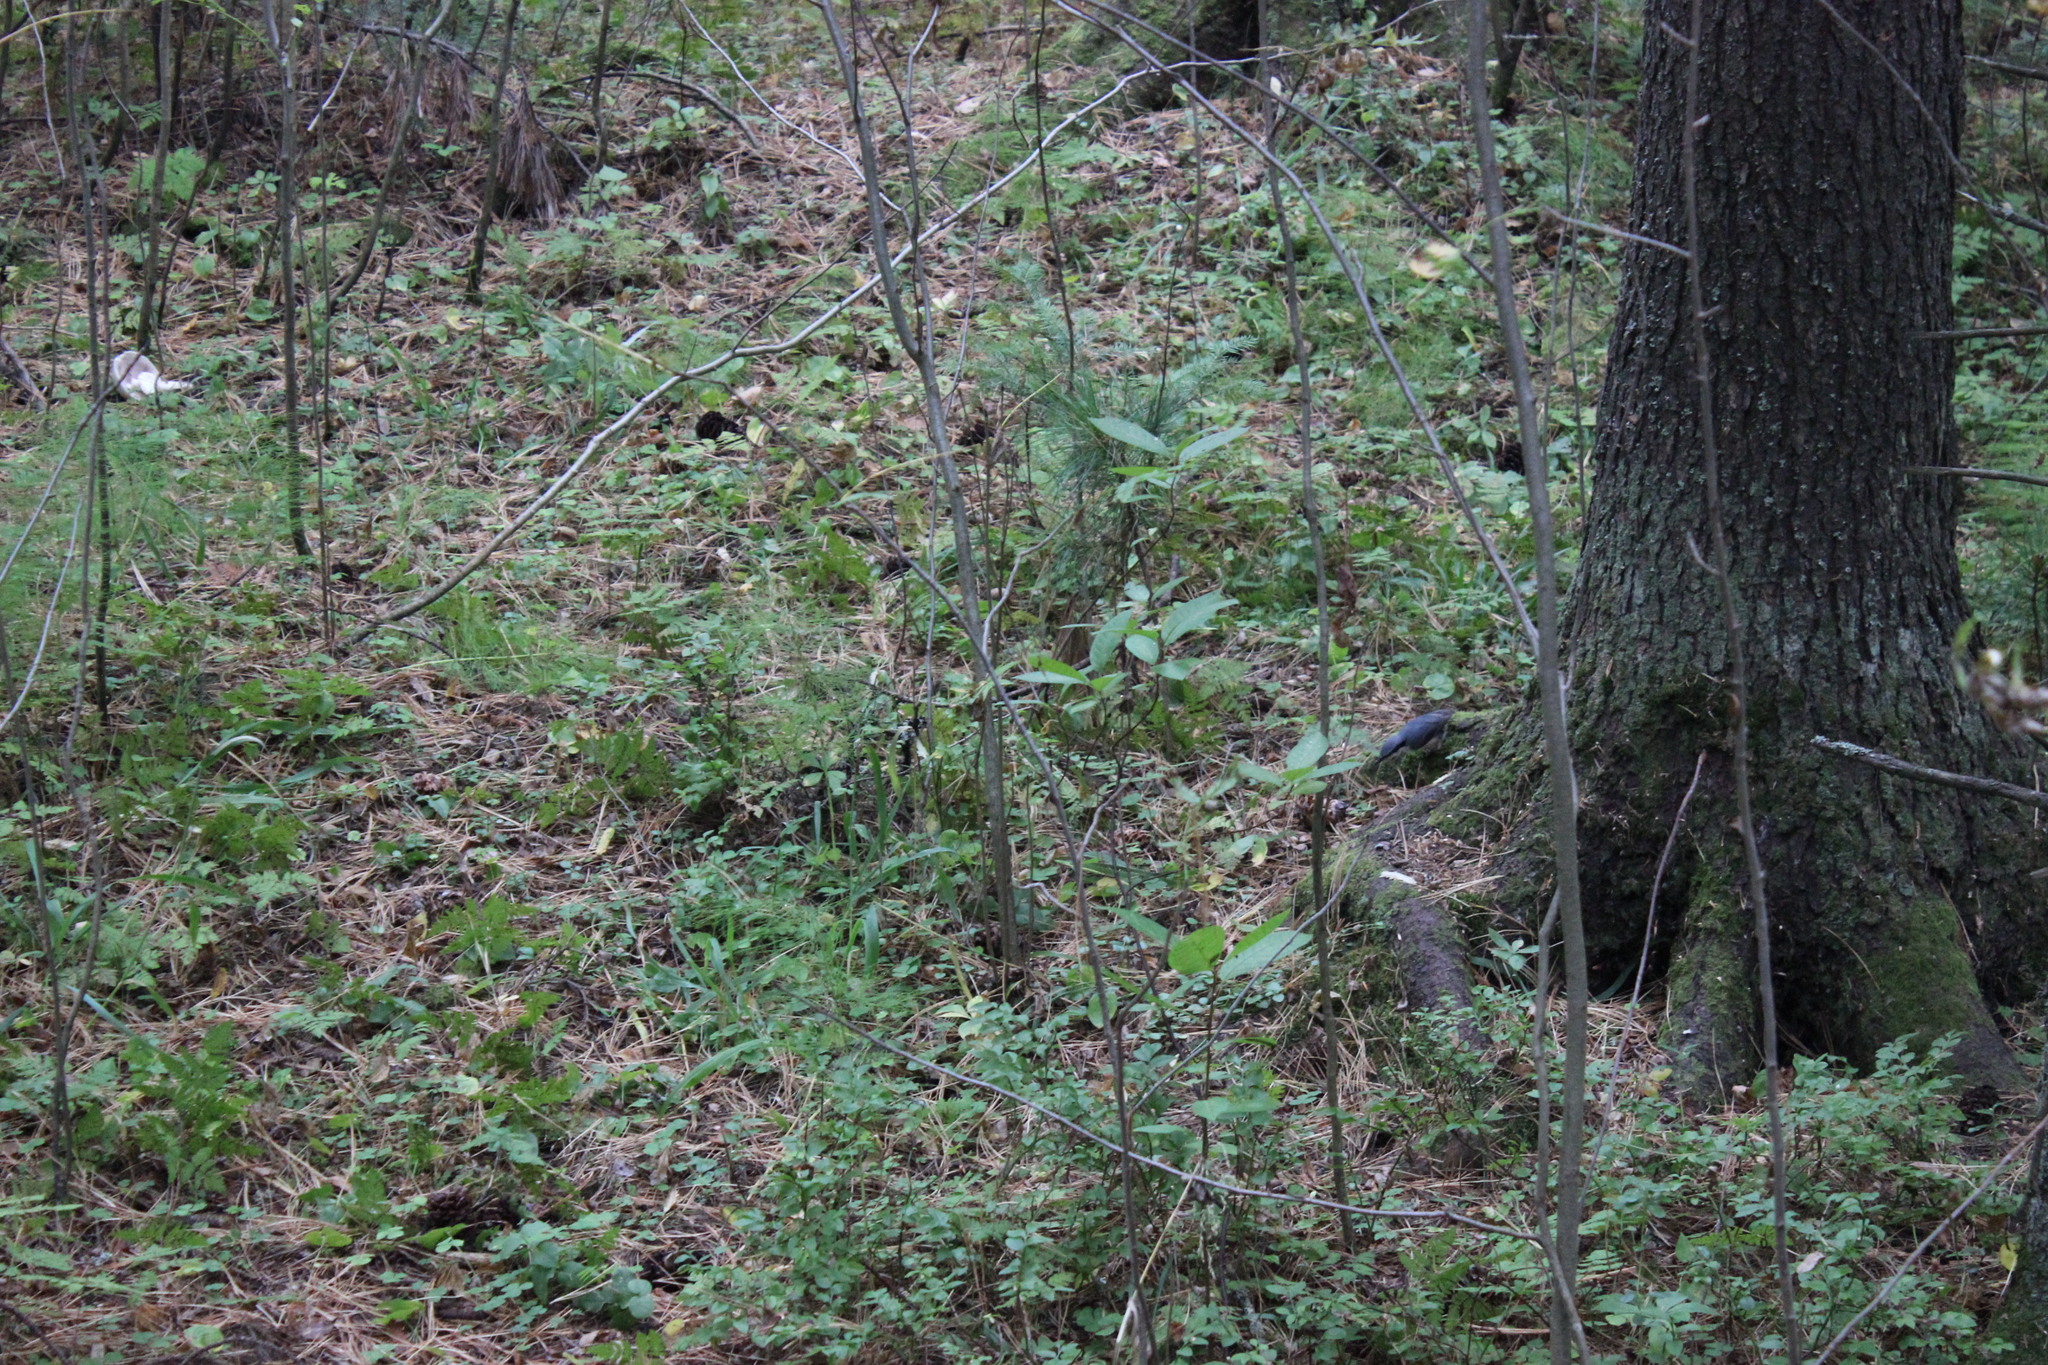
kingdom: Animalia
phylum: Chordata
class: Aves
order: Passeriformes
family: Sittidae
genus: Sitta
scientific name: Sitta europaea
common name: Eurasian nuthatch
